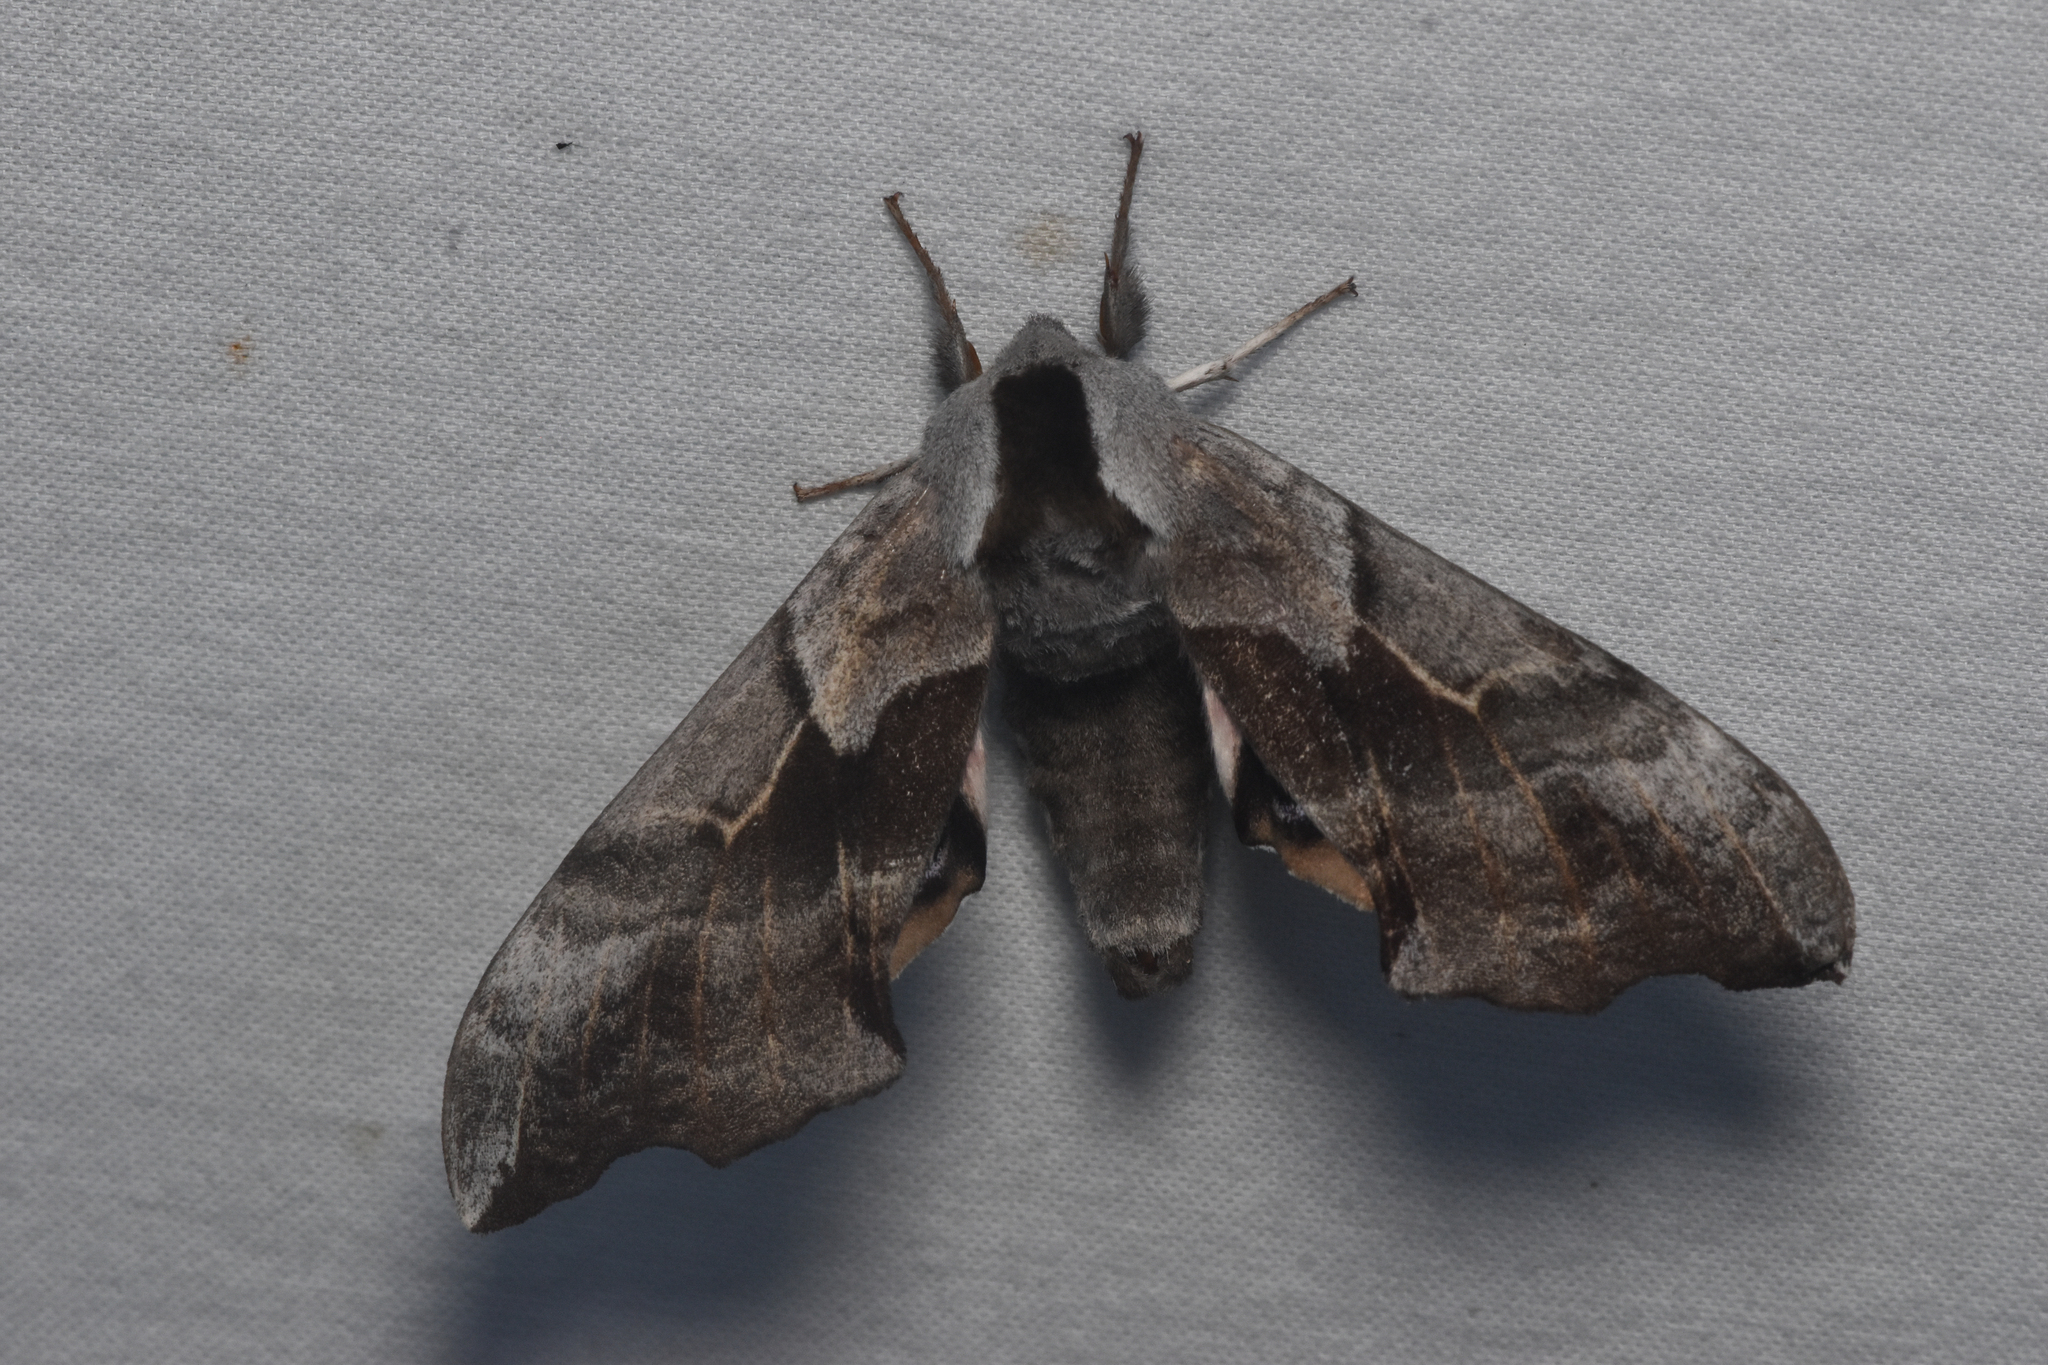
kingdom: Animalia
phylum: Arthropoda
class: Insecta
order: Lepidoptera
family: Sphingidae
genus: Smerinthus
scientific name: Smerinthus cerisyi
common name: Cerisy's sphinx moth
